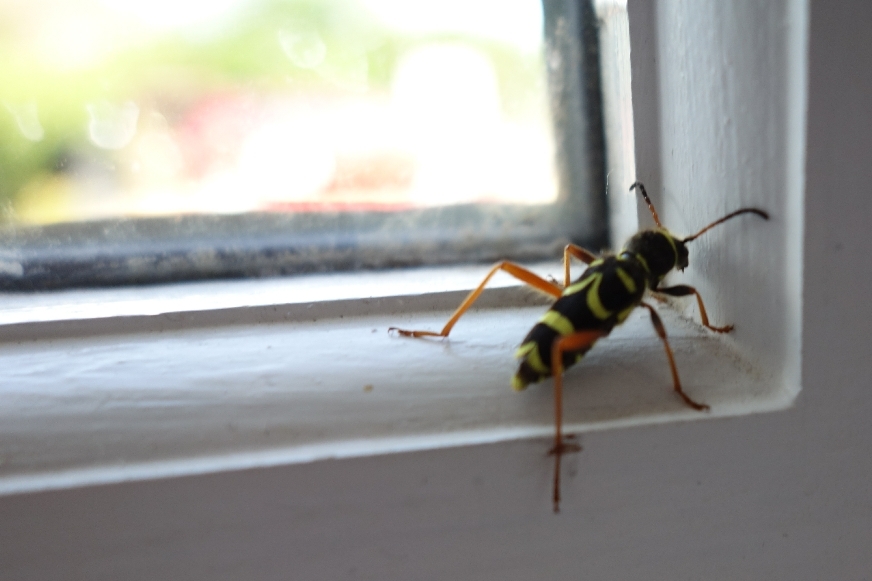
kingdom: Animalia
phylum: Arthropoda
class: Insecta
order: Coleoptera
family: Cerambycidae
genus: Clytus
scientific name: Clytus arietis
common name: Wasp beetle
